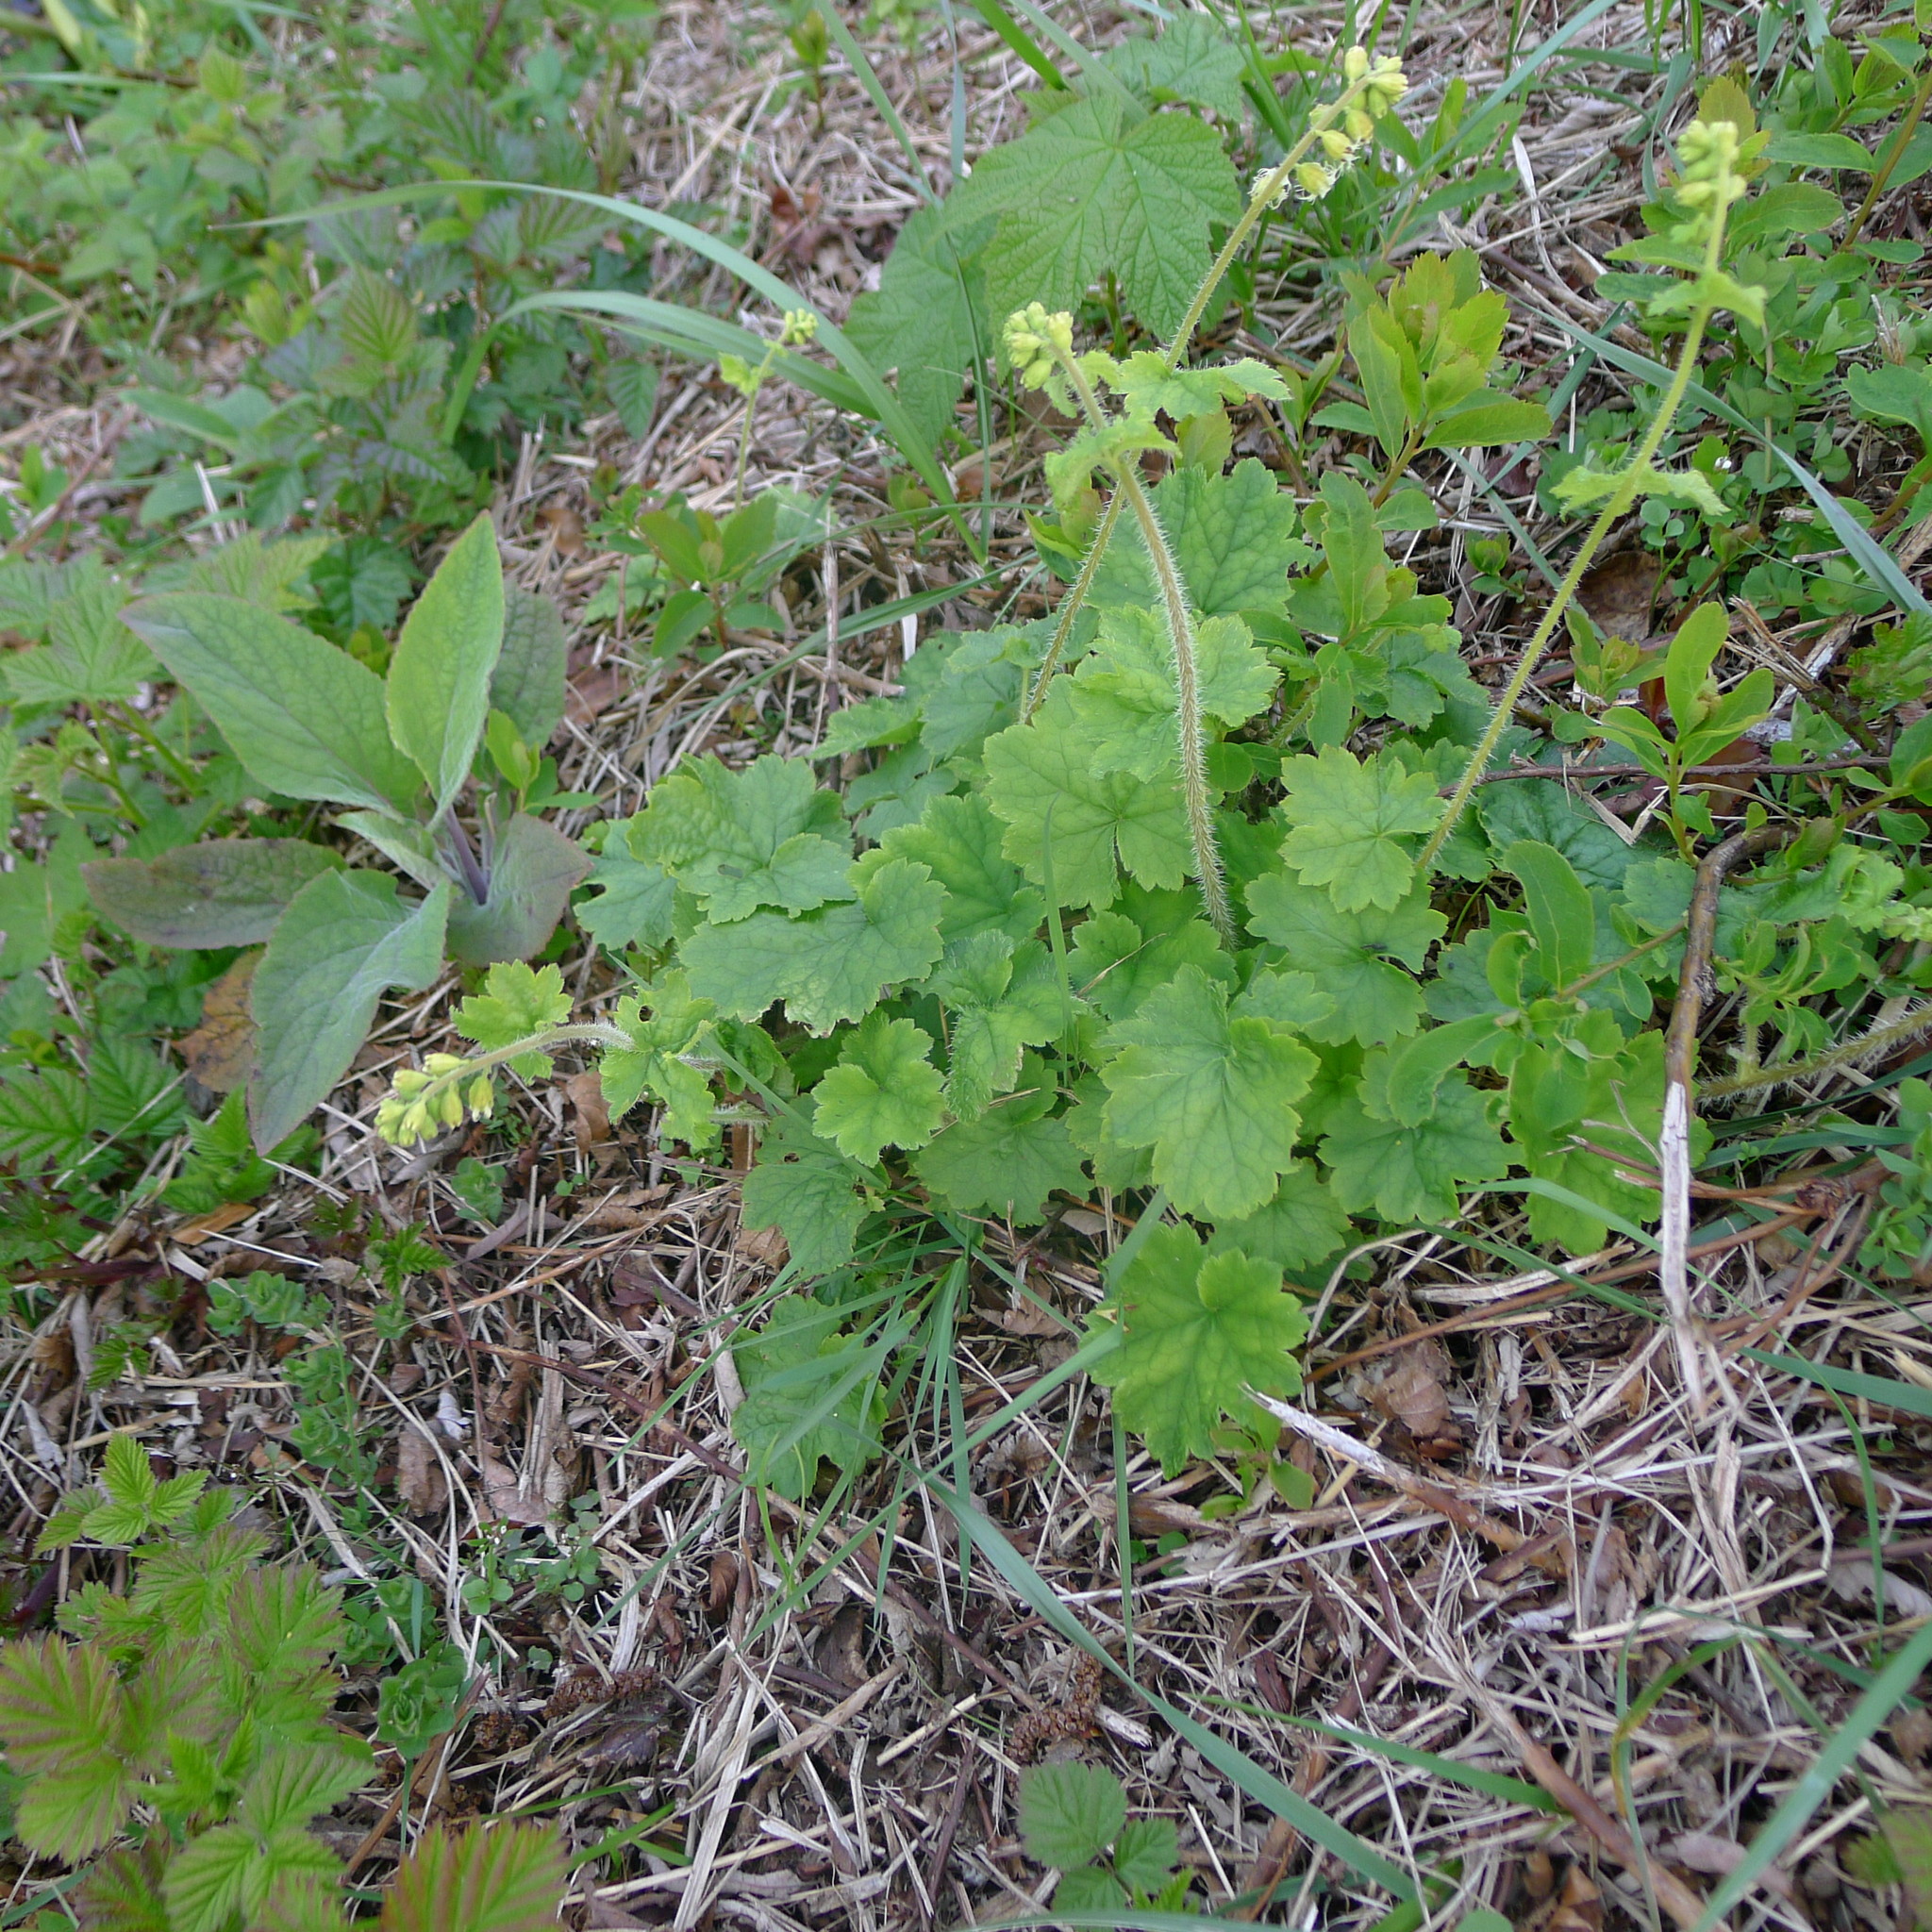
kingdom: Plantae
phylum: Tracheophyta
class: Magnoliopsida
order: Saxifragales
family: Saxifragaceae
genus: Tellima
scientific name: Tellima grandiflora
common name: Fringecups
